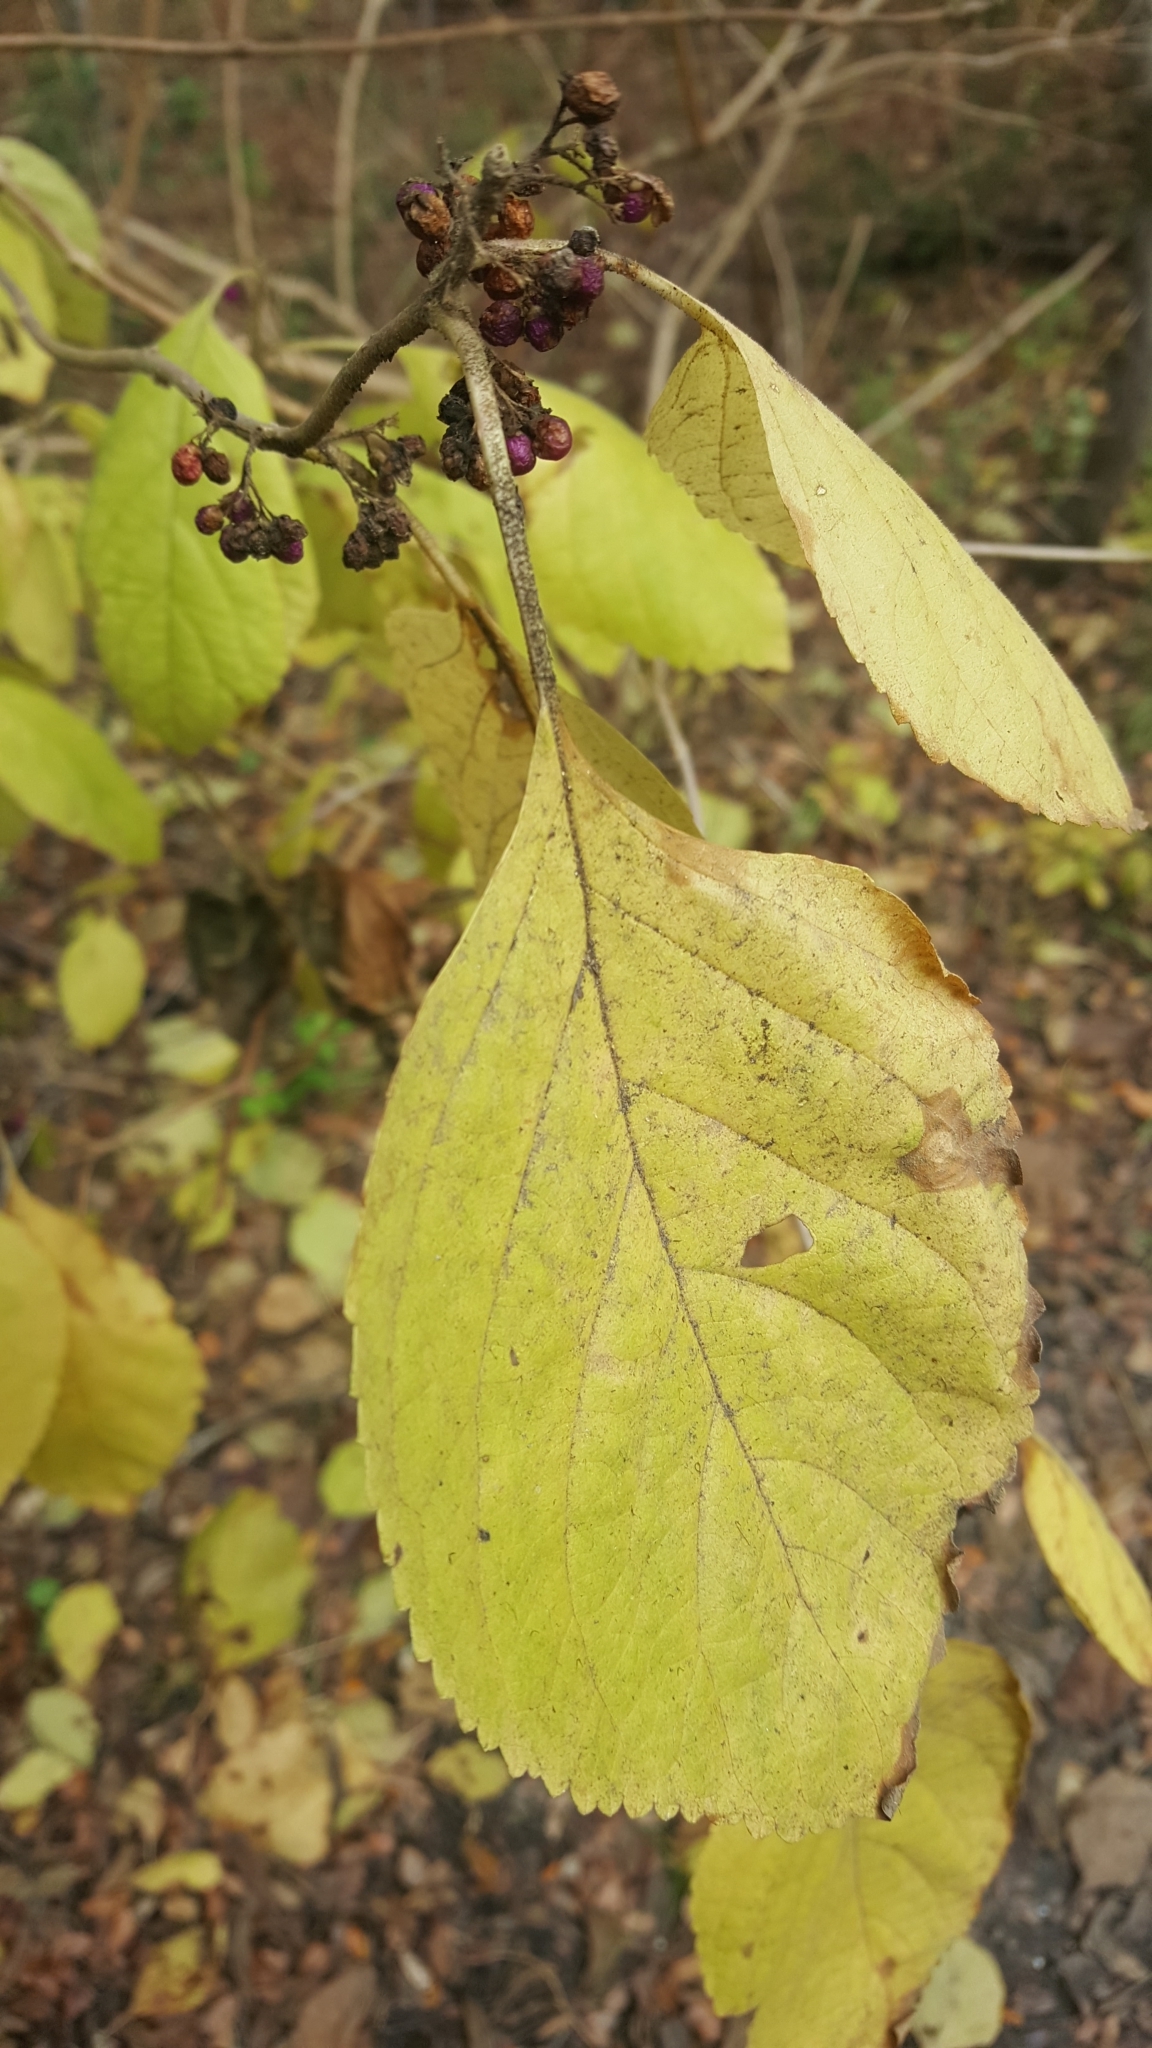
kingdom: Plantae
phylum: Tracheophyta
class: Magnoliopsida
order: Lamiales
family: Lamiaceae
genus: Callicarpa
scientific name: Callicarpa americana
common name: American beautyberry
